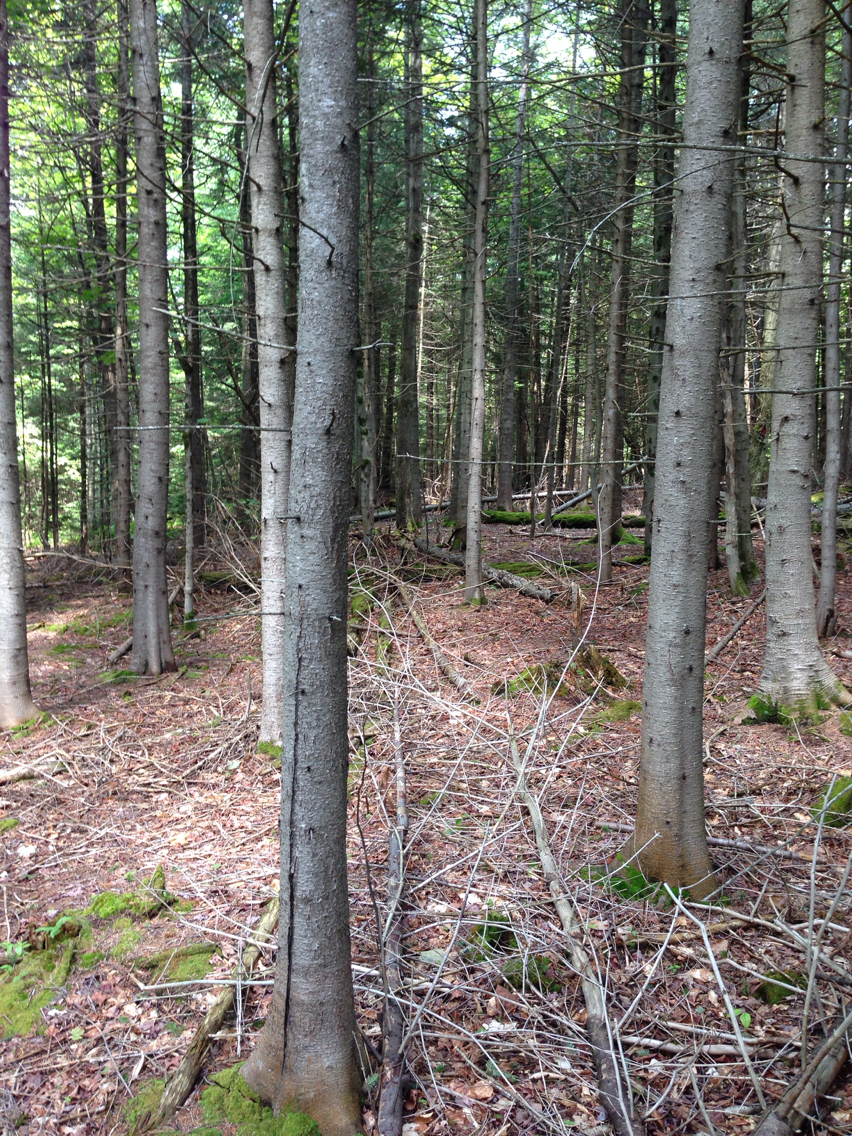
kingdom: Plantae
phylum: Tracheophyta
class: Pinopsida
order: Pinales
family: Pinaceae
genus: Abies
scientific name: Abies balsamea
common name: Balsam fir
